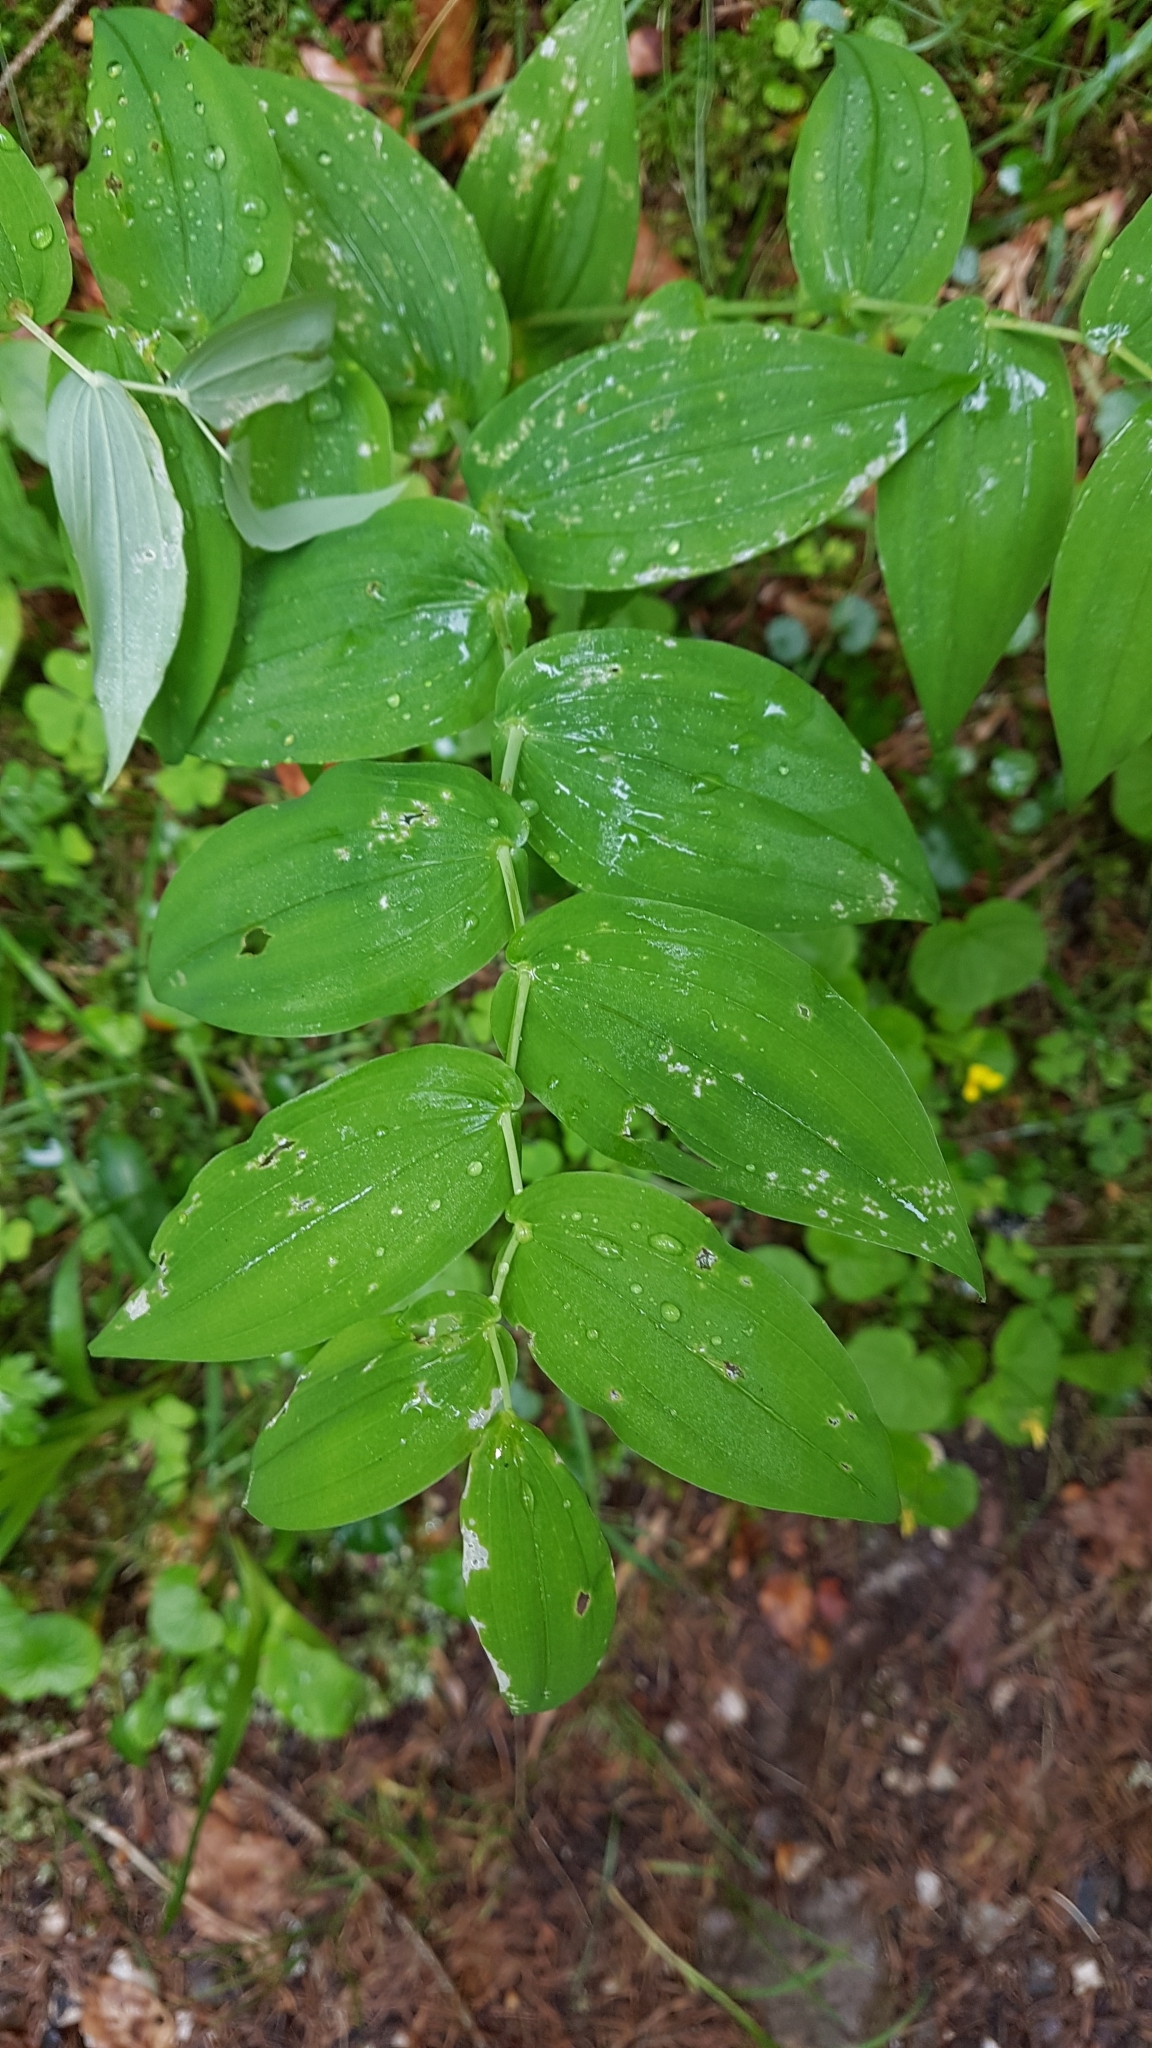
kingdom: Plantae
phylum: Tracheophyta
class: Liliopsida
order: Liliales
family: Liliaceae
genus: Streptopus
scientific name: Streptopus amplexifolius
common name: Clasp twisted stalk
